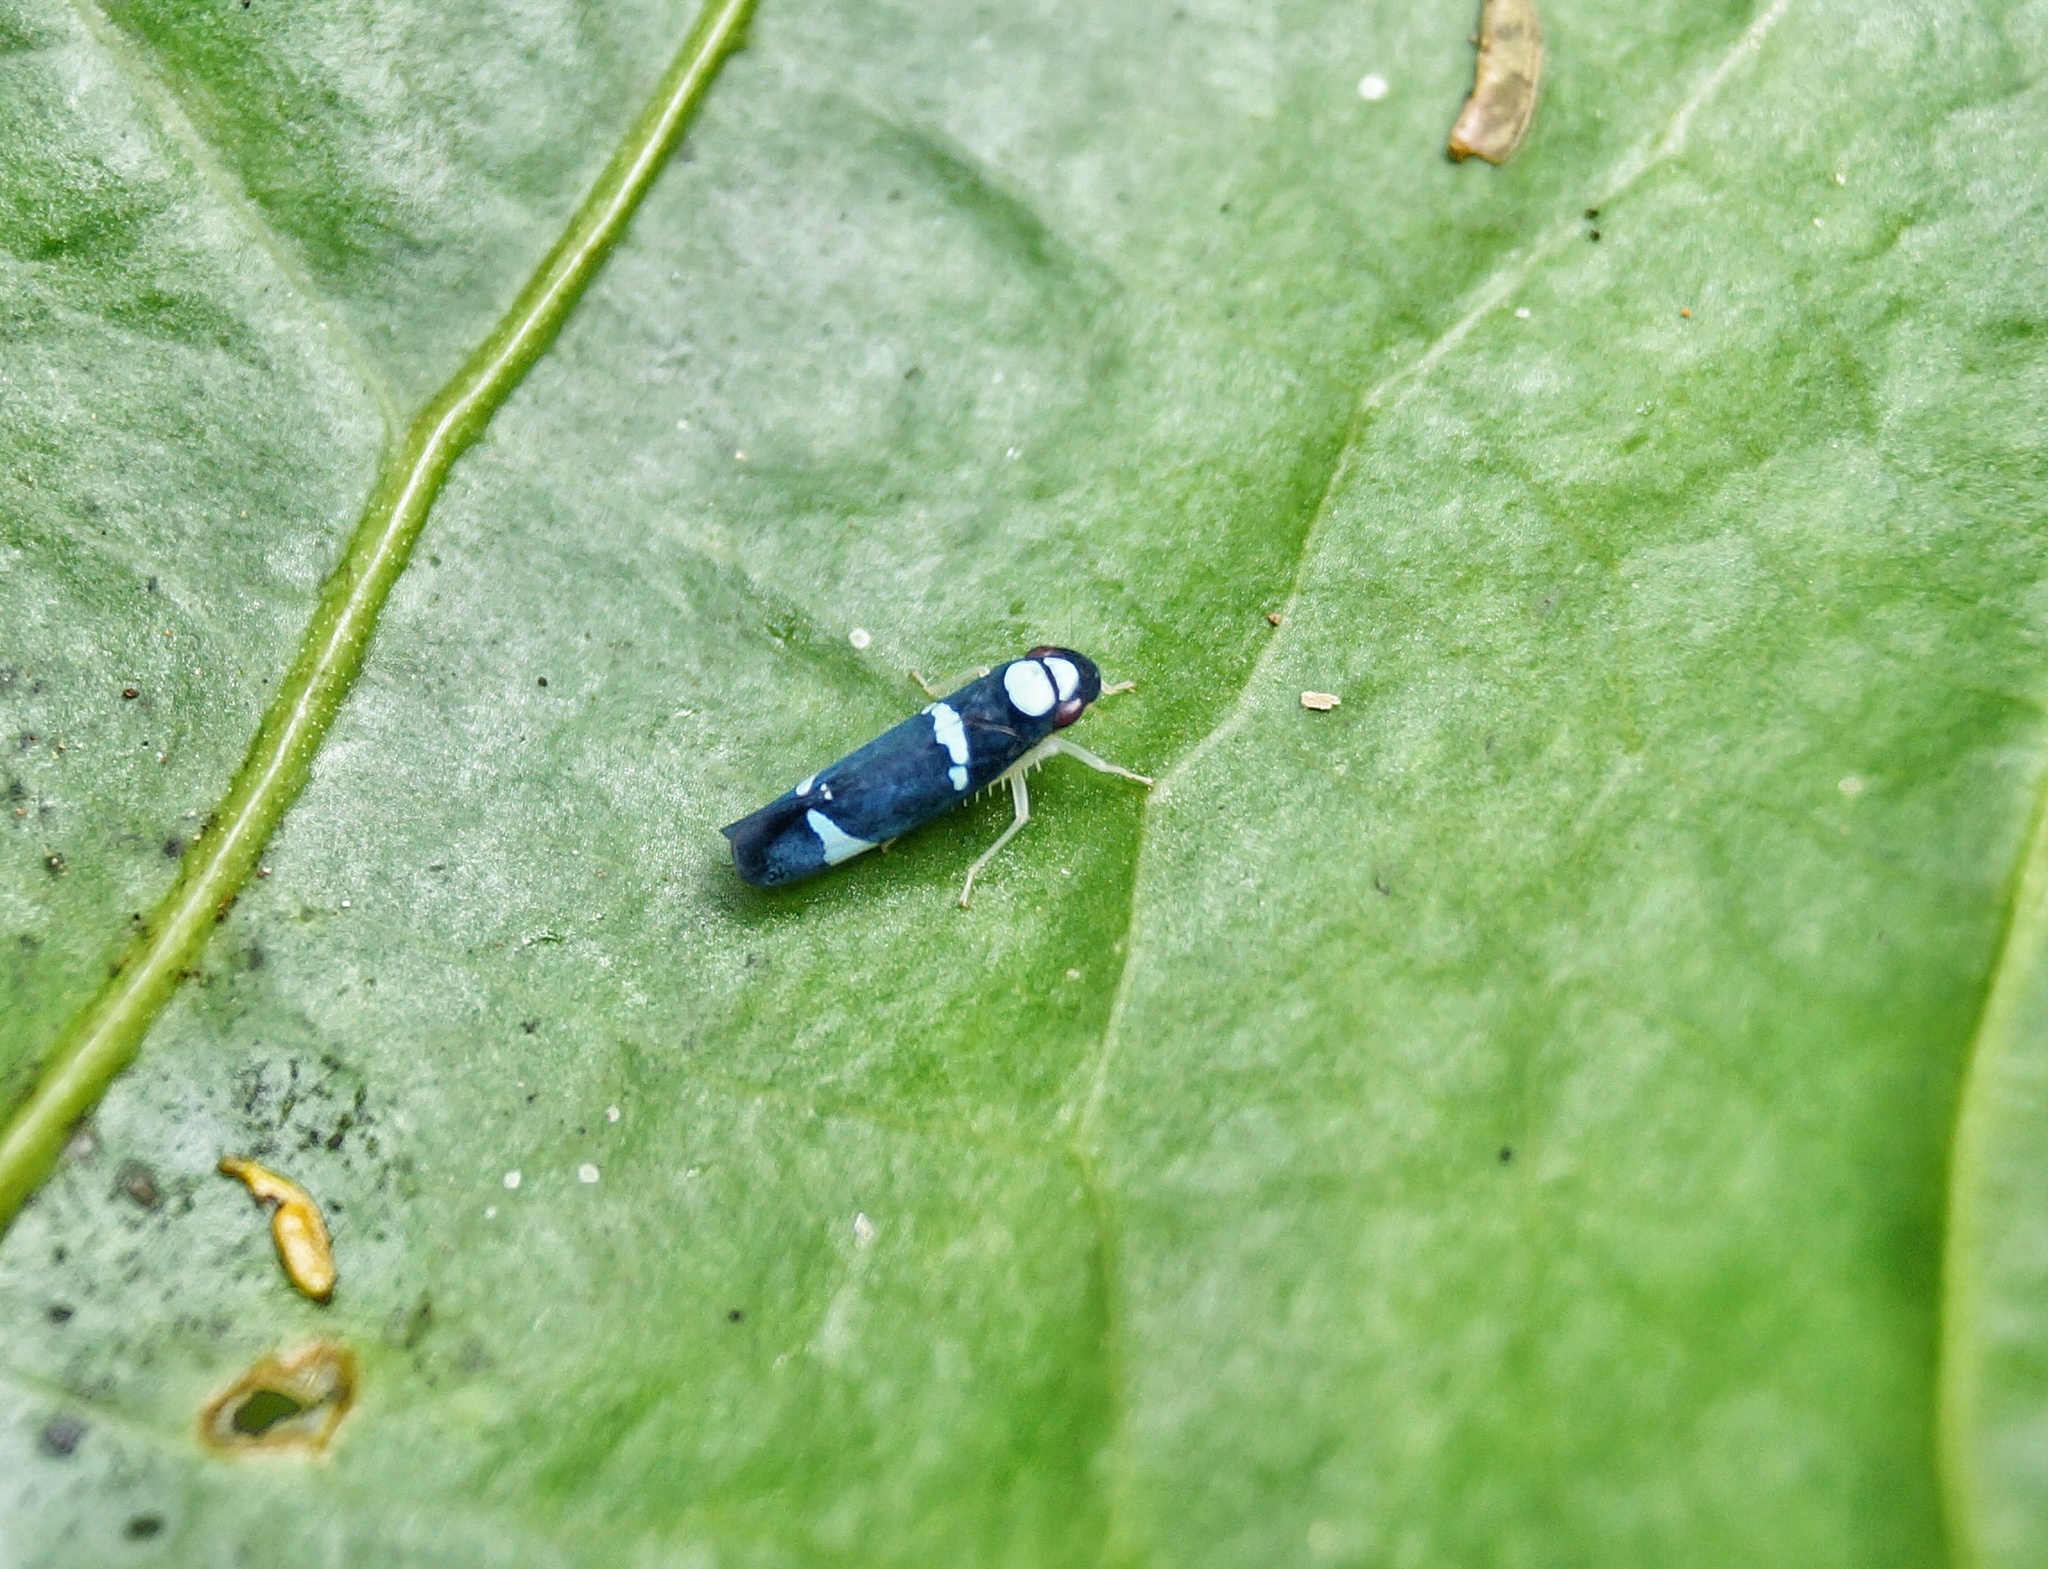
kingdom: Animalia
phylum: Arthropoda
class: Insecta
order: Hemiptera
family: Cicadellidae
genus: Erythrogonia
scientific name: Erythrogonia ekila
